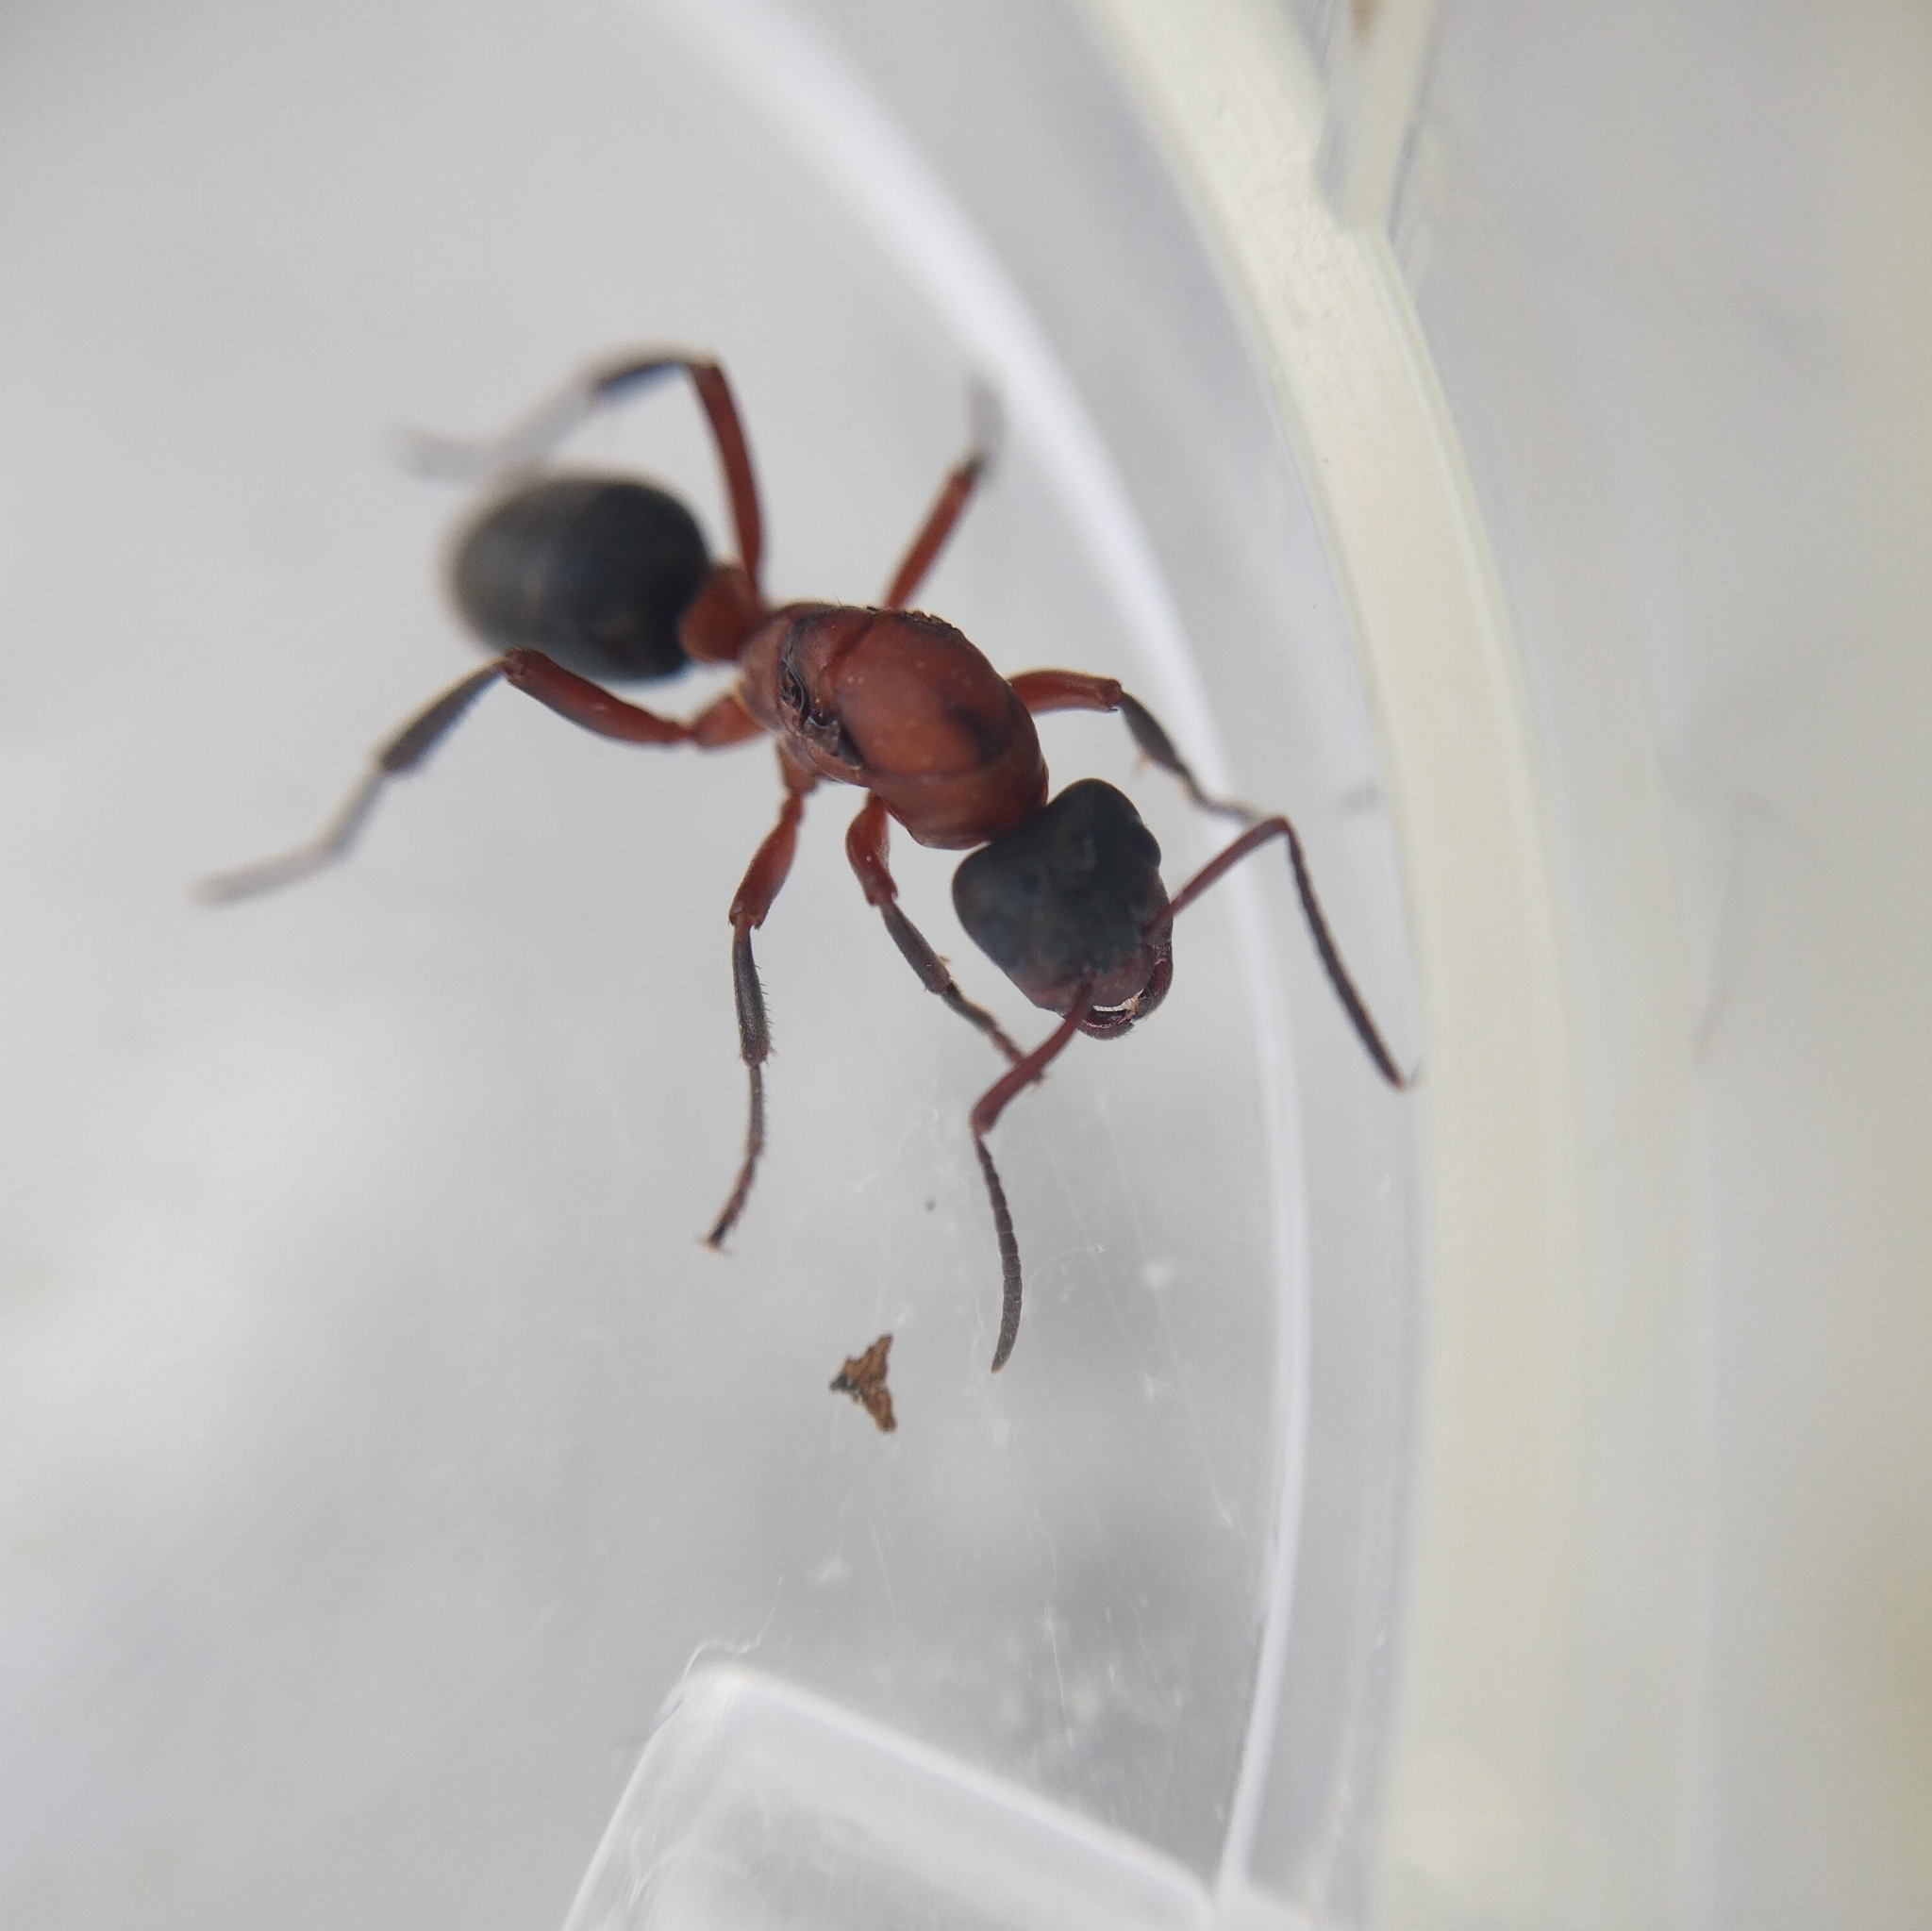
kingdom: Animalia
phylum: Arthropoda
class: Insecta
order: Hymenoptera
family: Formicidae
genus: Formica
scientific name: Formica sanguinea
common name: Blood-red ant
